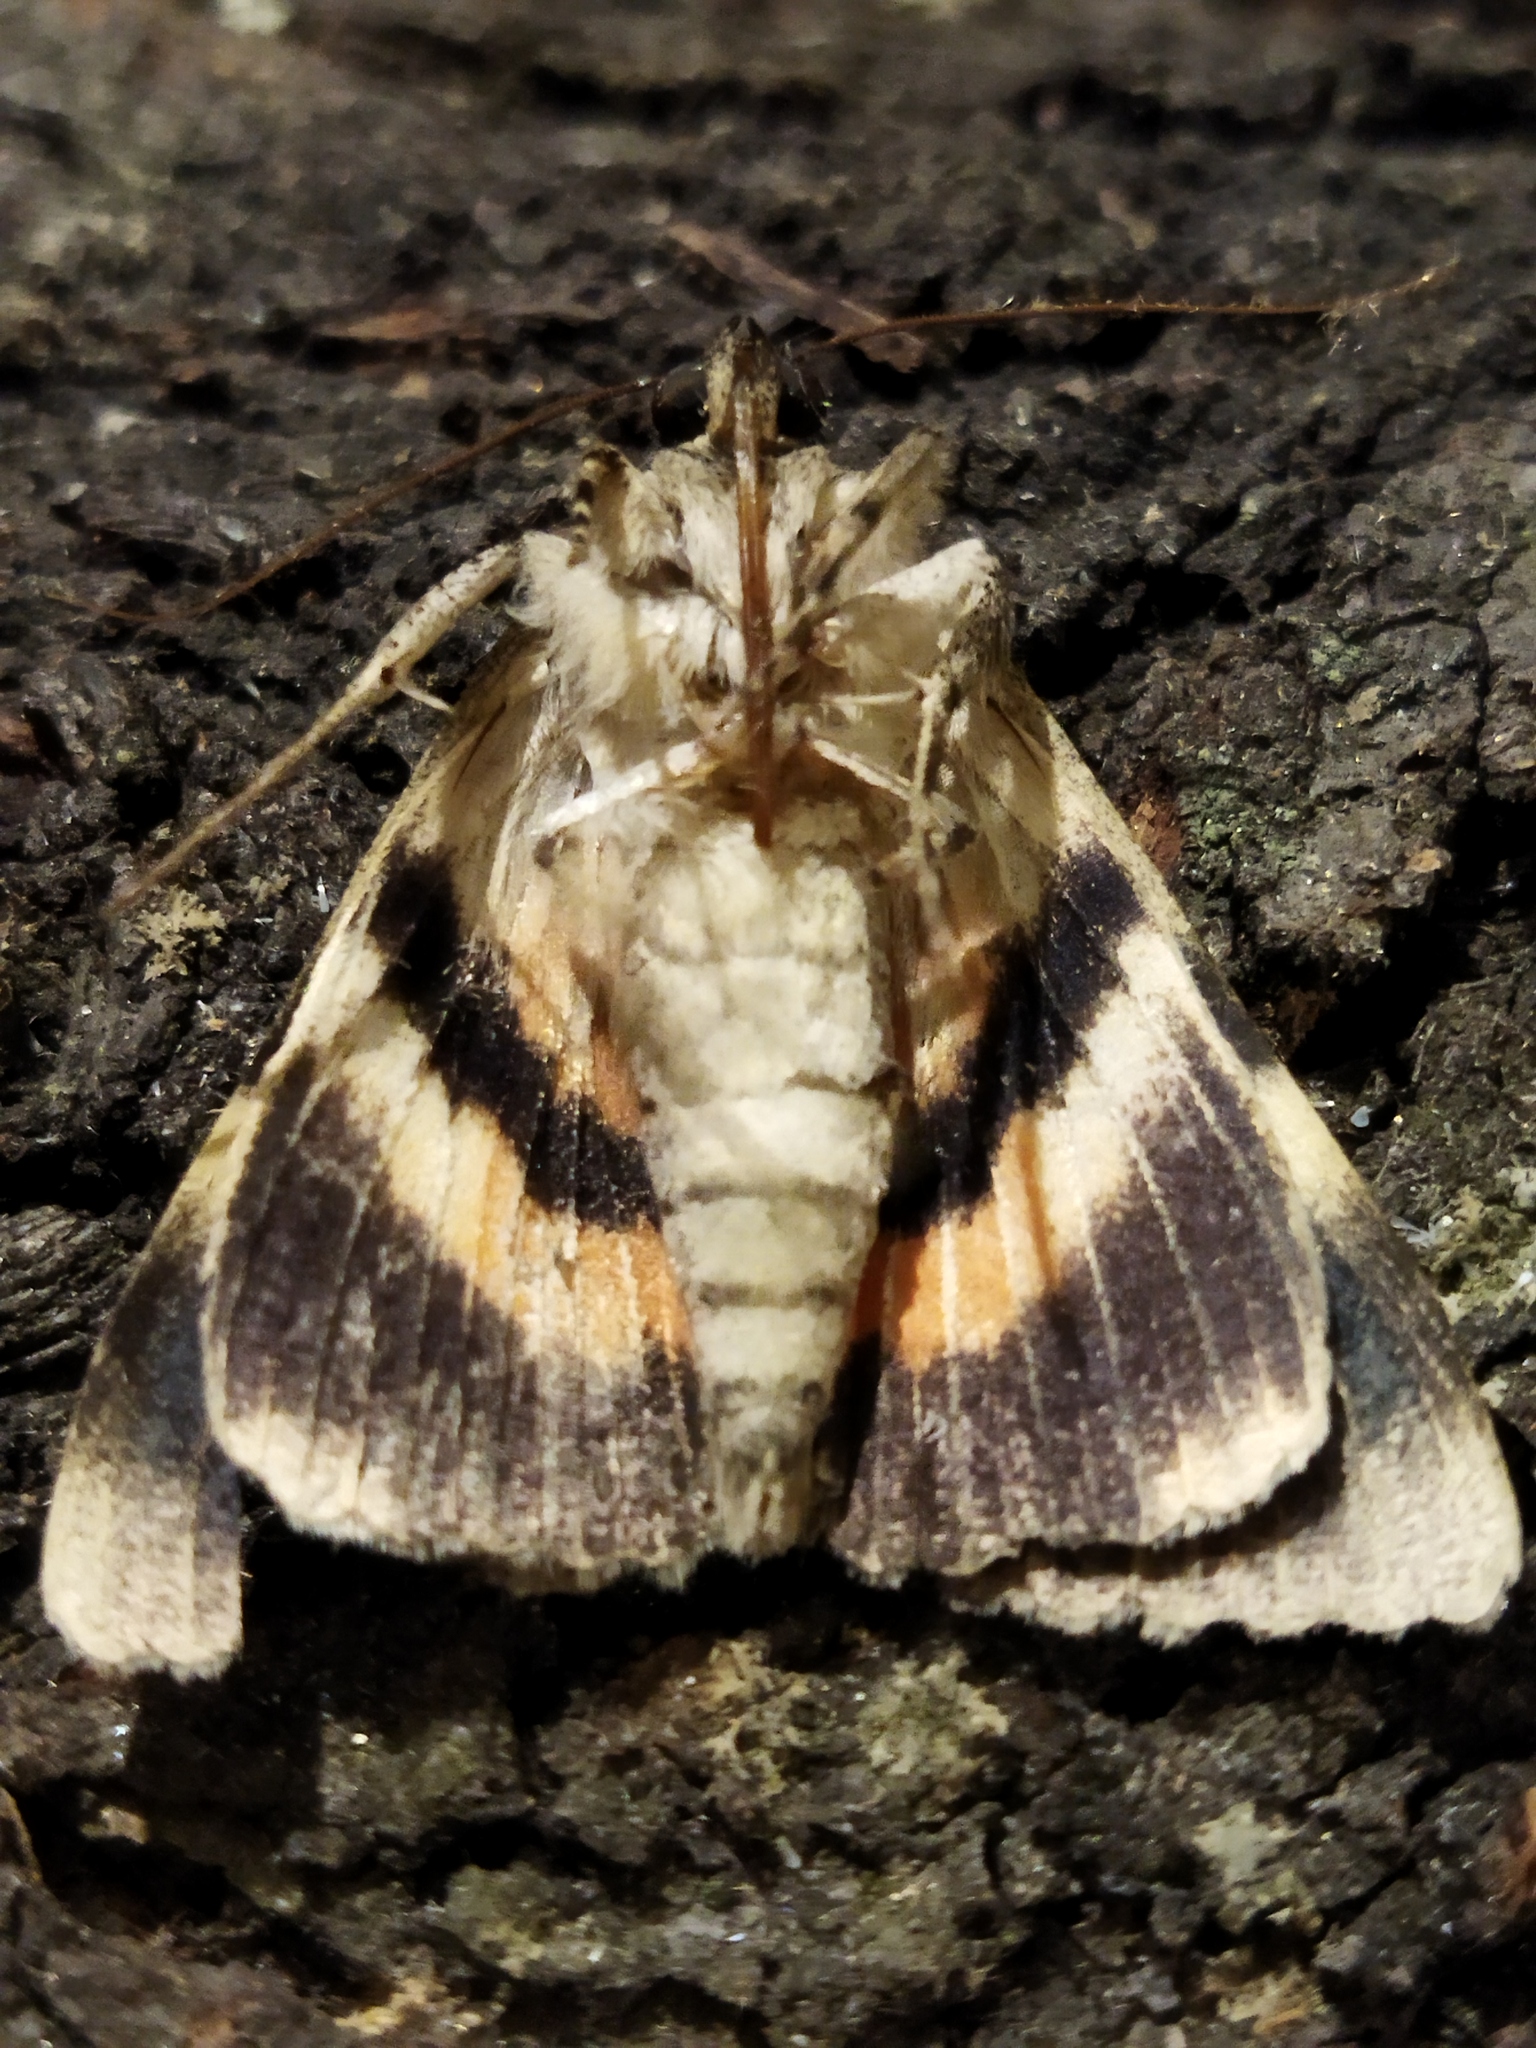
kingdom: Animalia
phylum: Arthropoda
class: Insecta
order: Lepidoptera
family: Erebidae
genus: Catocala
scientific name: Catocala puerpera
